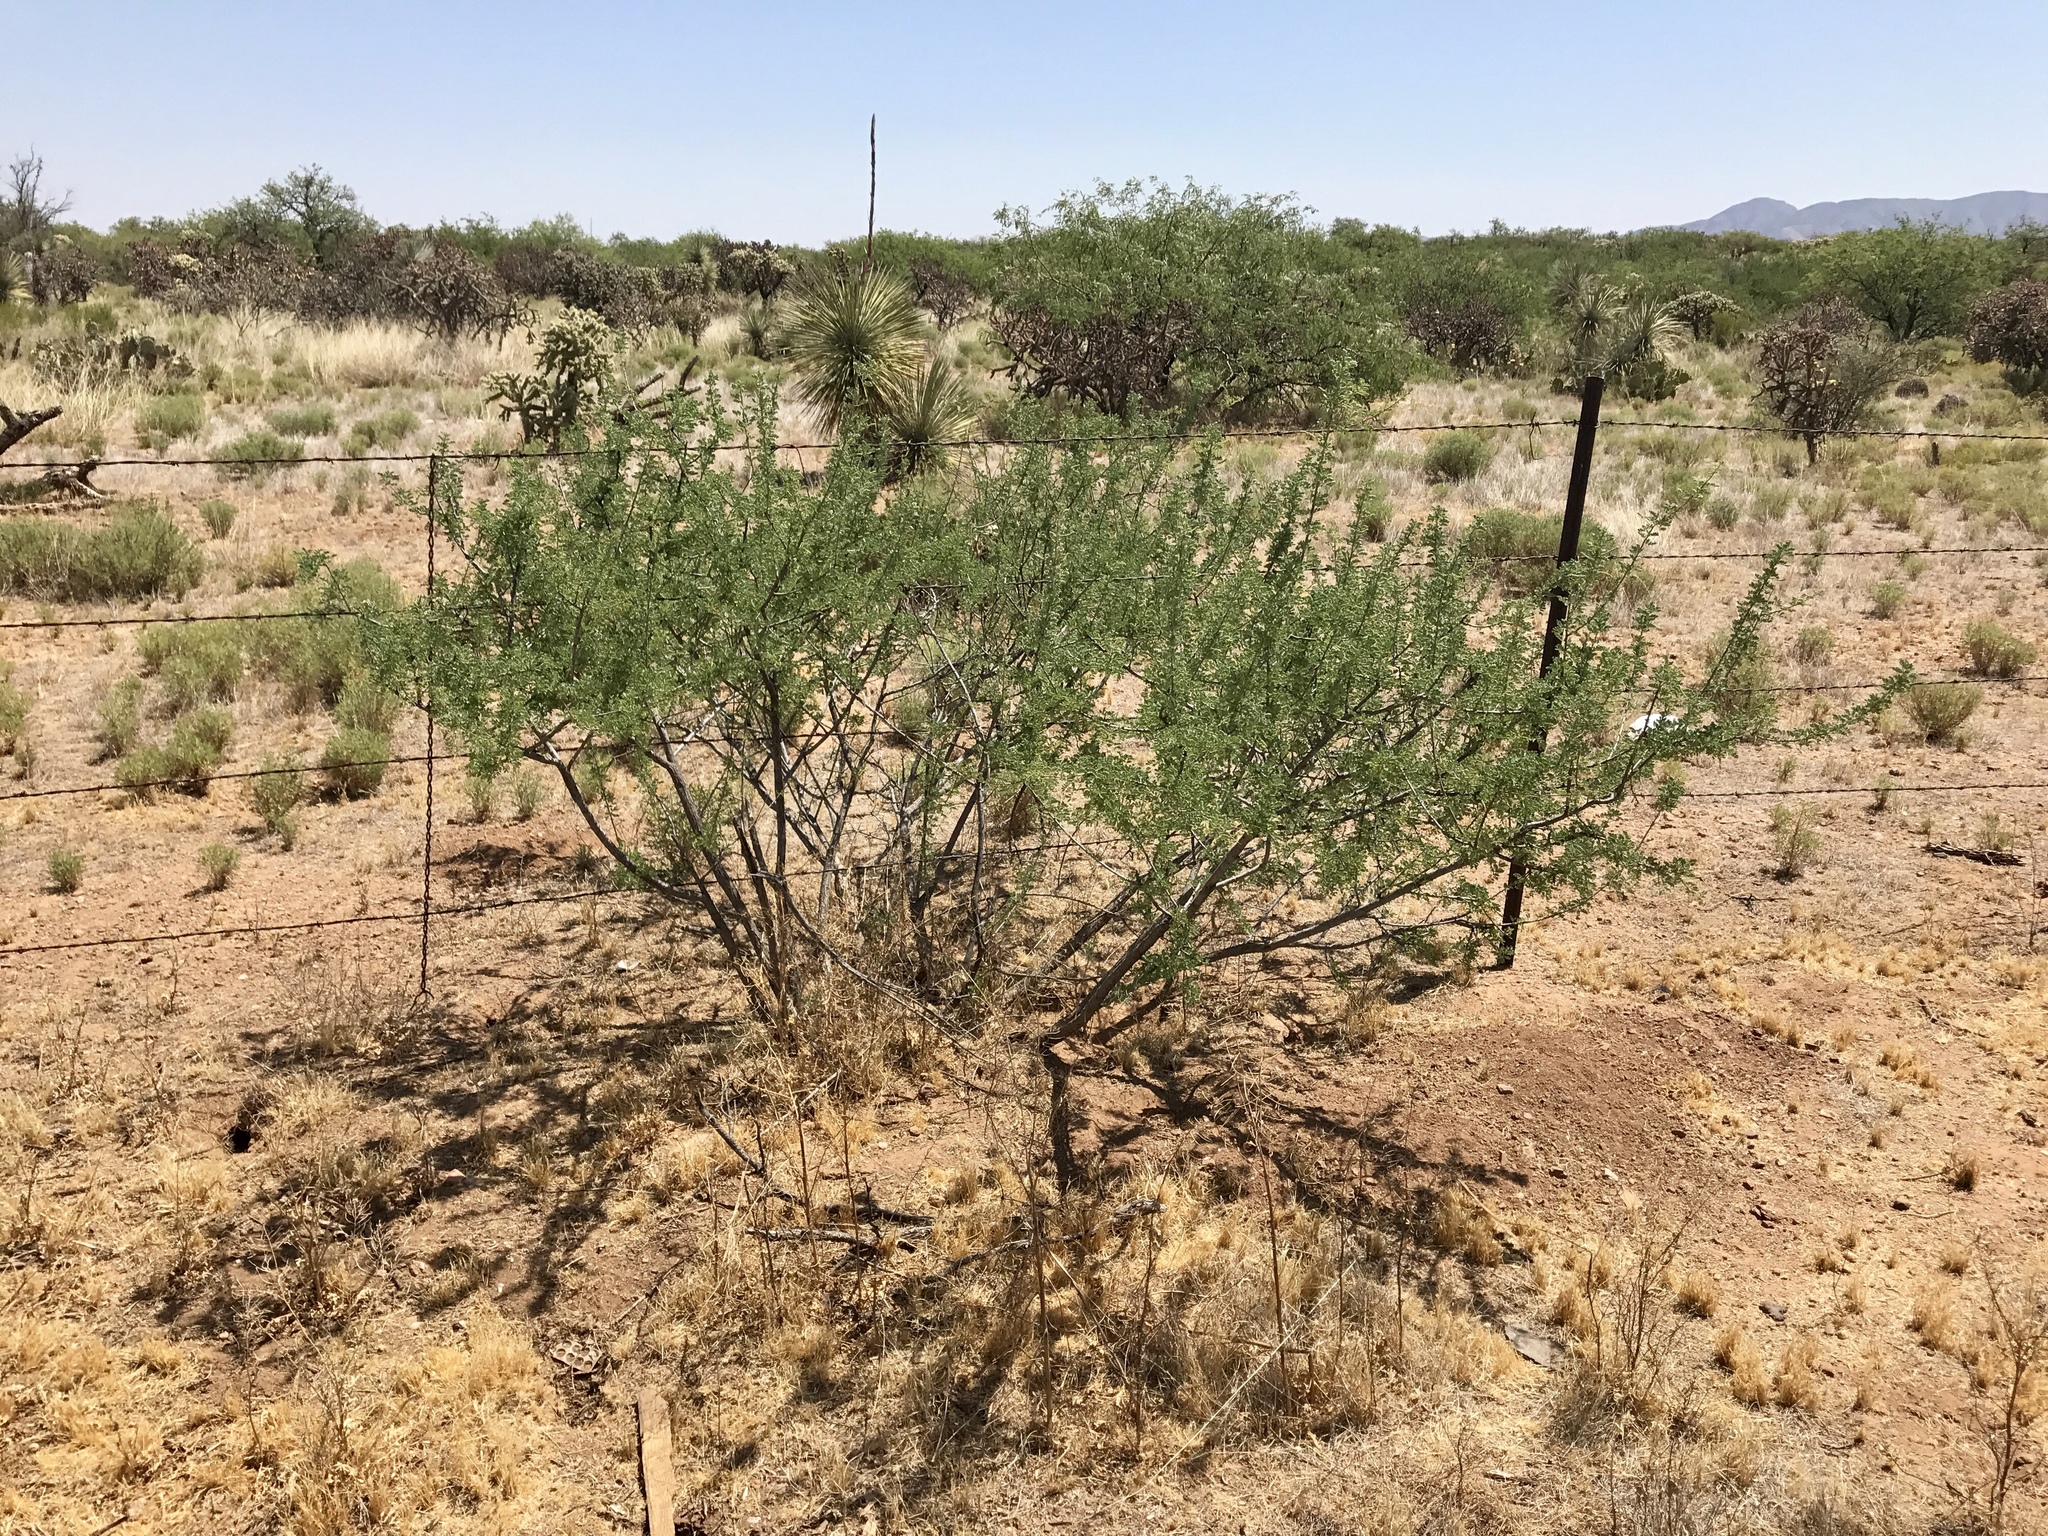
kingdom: Plantae
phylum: Tracheophyta
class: Magnoliopsida
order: Fabales
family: Fabaceae
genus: Senegalia
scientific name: Senegalia greggii
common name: Texas-mimosa
